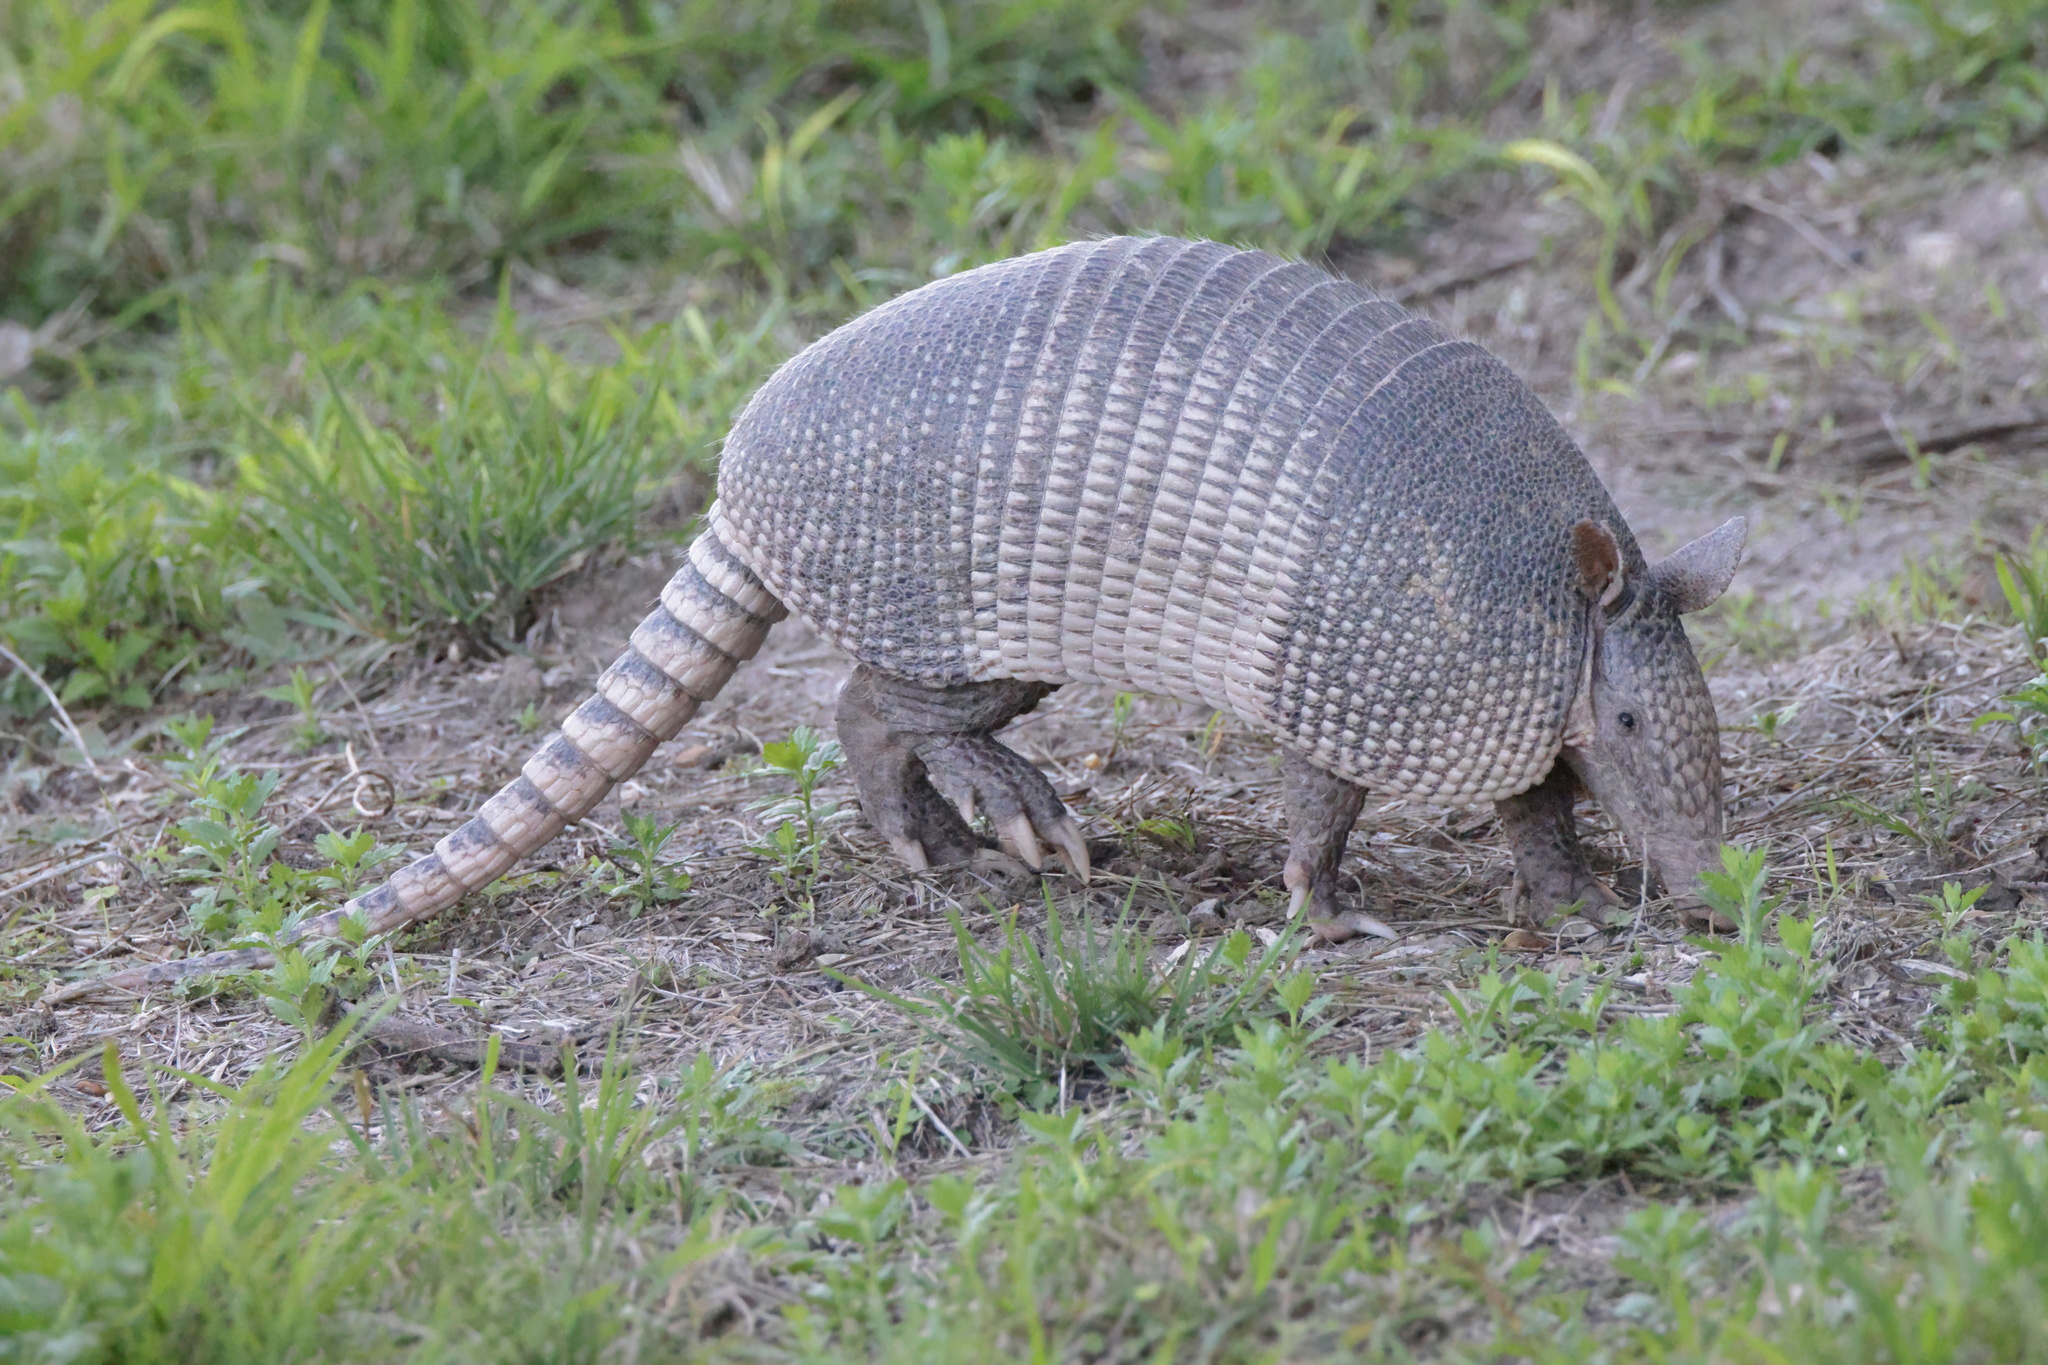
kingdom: Animalia
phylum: Chordata
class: Mammalia
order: Cingulata
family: Dasypodidae
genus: Dasypus
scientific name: Dasypus novemcinctus
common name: Nine-banded armadillo
